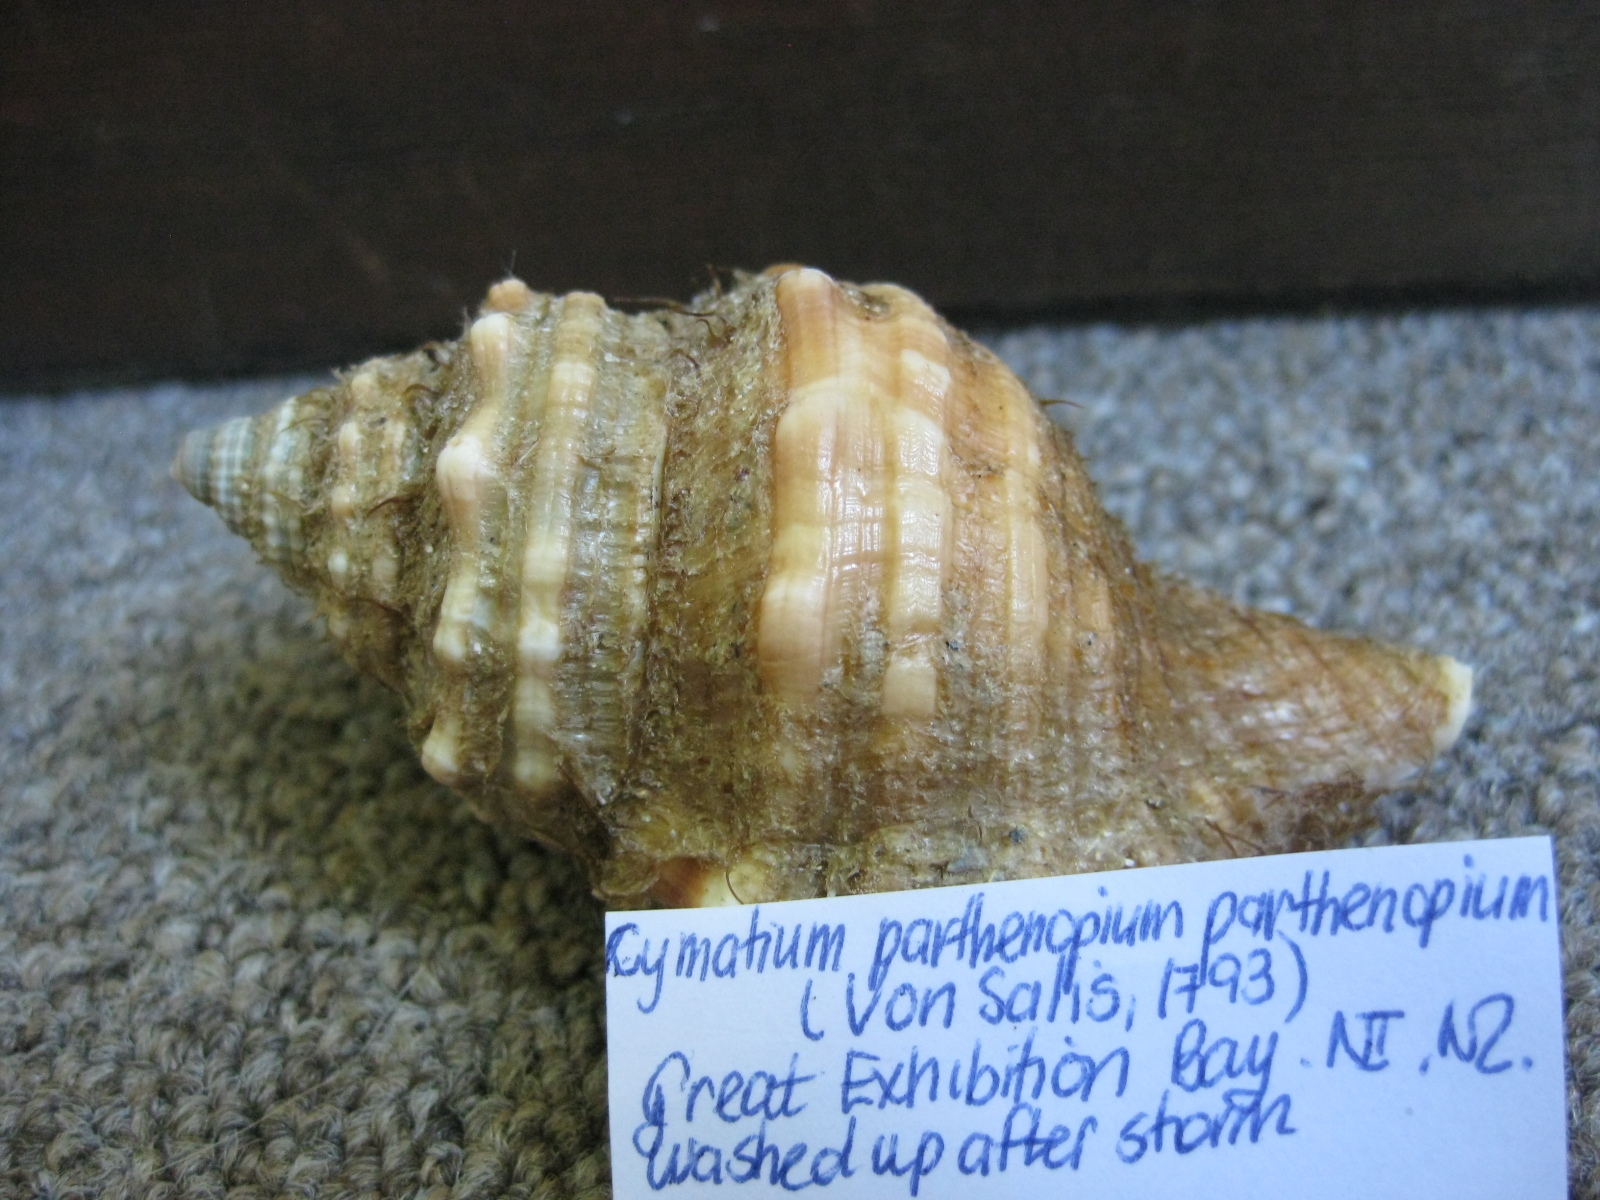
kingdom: Animalia
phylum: Mollusca
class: Gastropoda
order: Littorinimorpha
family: Cymatiidae
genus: Monoplex
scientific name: Monoplex parthenopeus
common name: Giant triton
